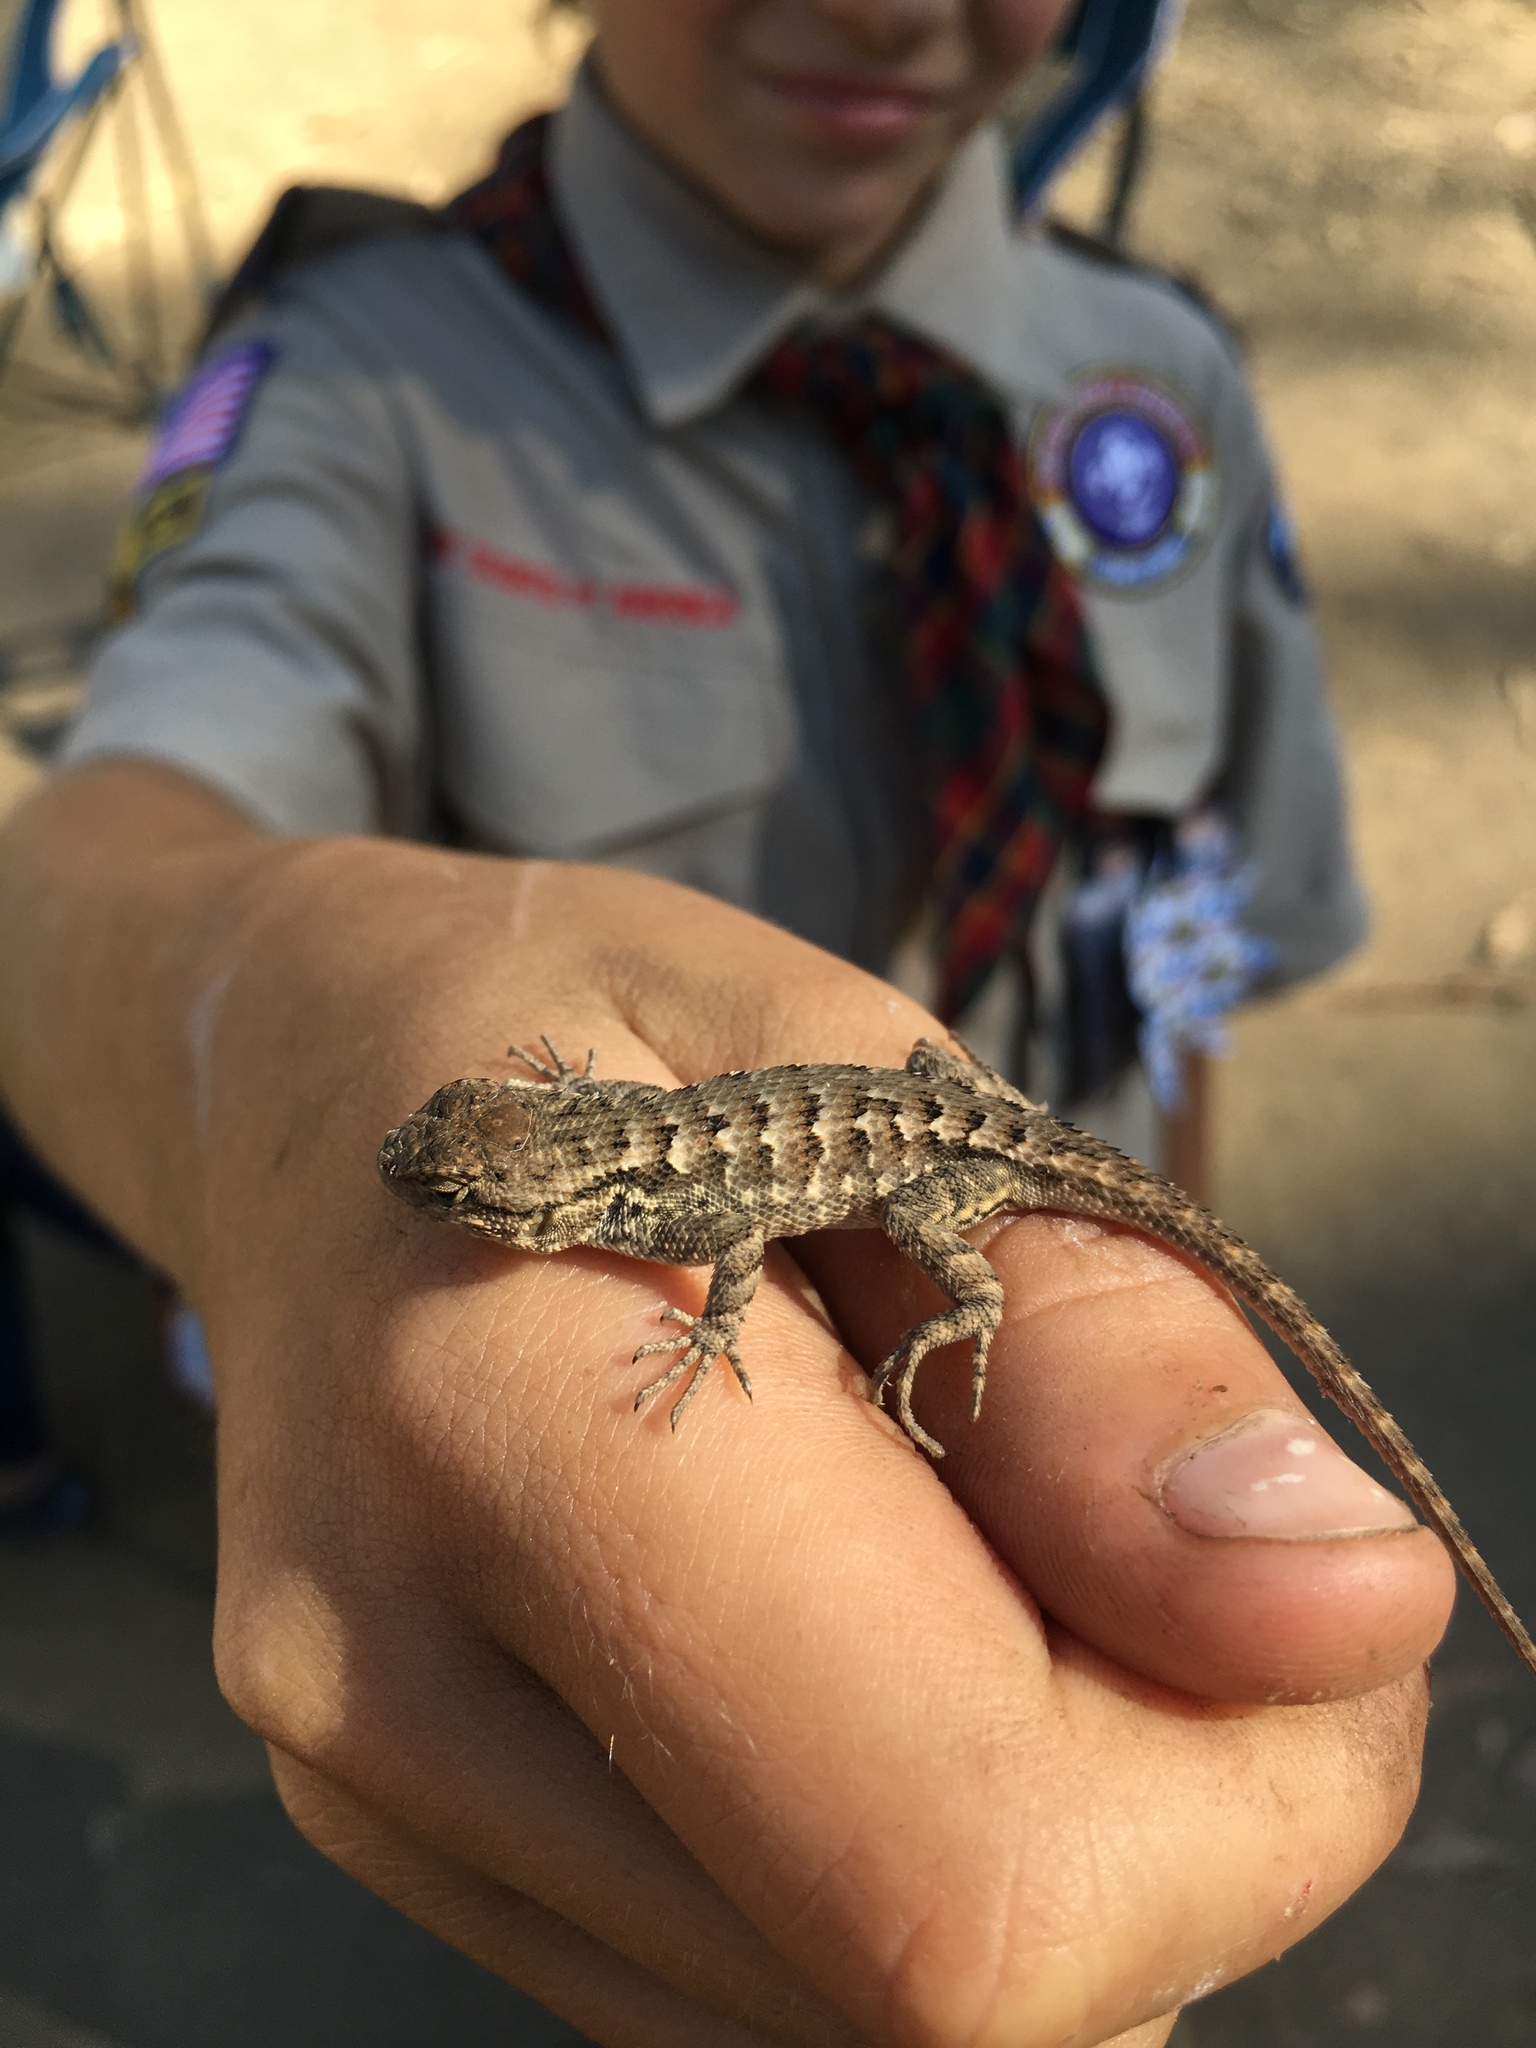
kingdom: Animalia
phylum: Chordata
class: Squamata
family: Phrynosomatidae
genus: Sceloporus
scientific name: Sceloporus occidentalis
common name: Western fence lizard
